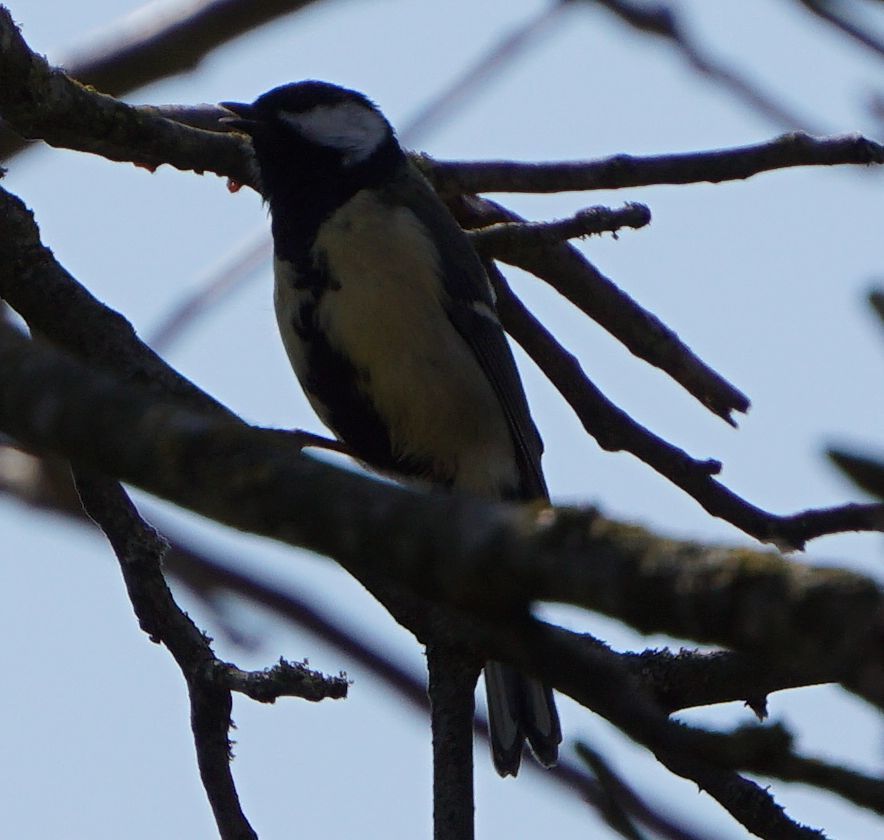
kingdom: Animalia
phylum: Chordata
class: Aves
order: Passeriformes
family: Paridae
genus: Parus
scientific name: Parus major
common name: Great tit
